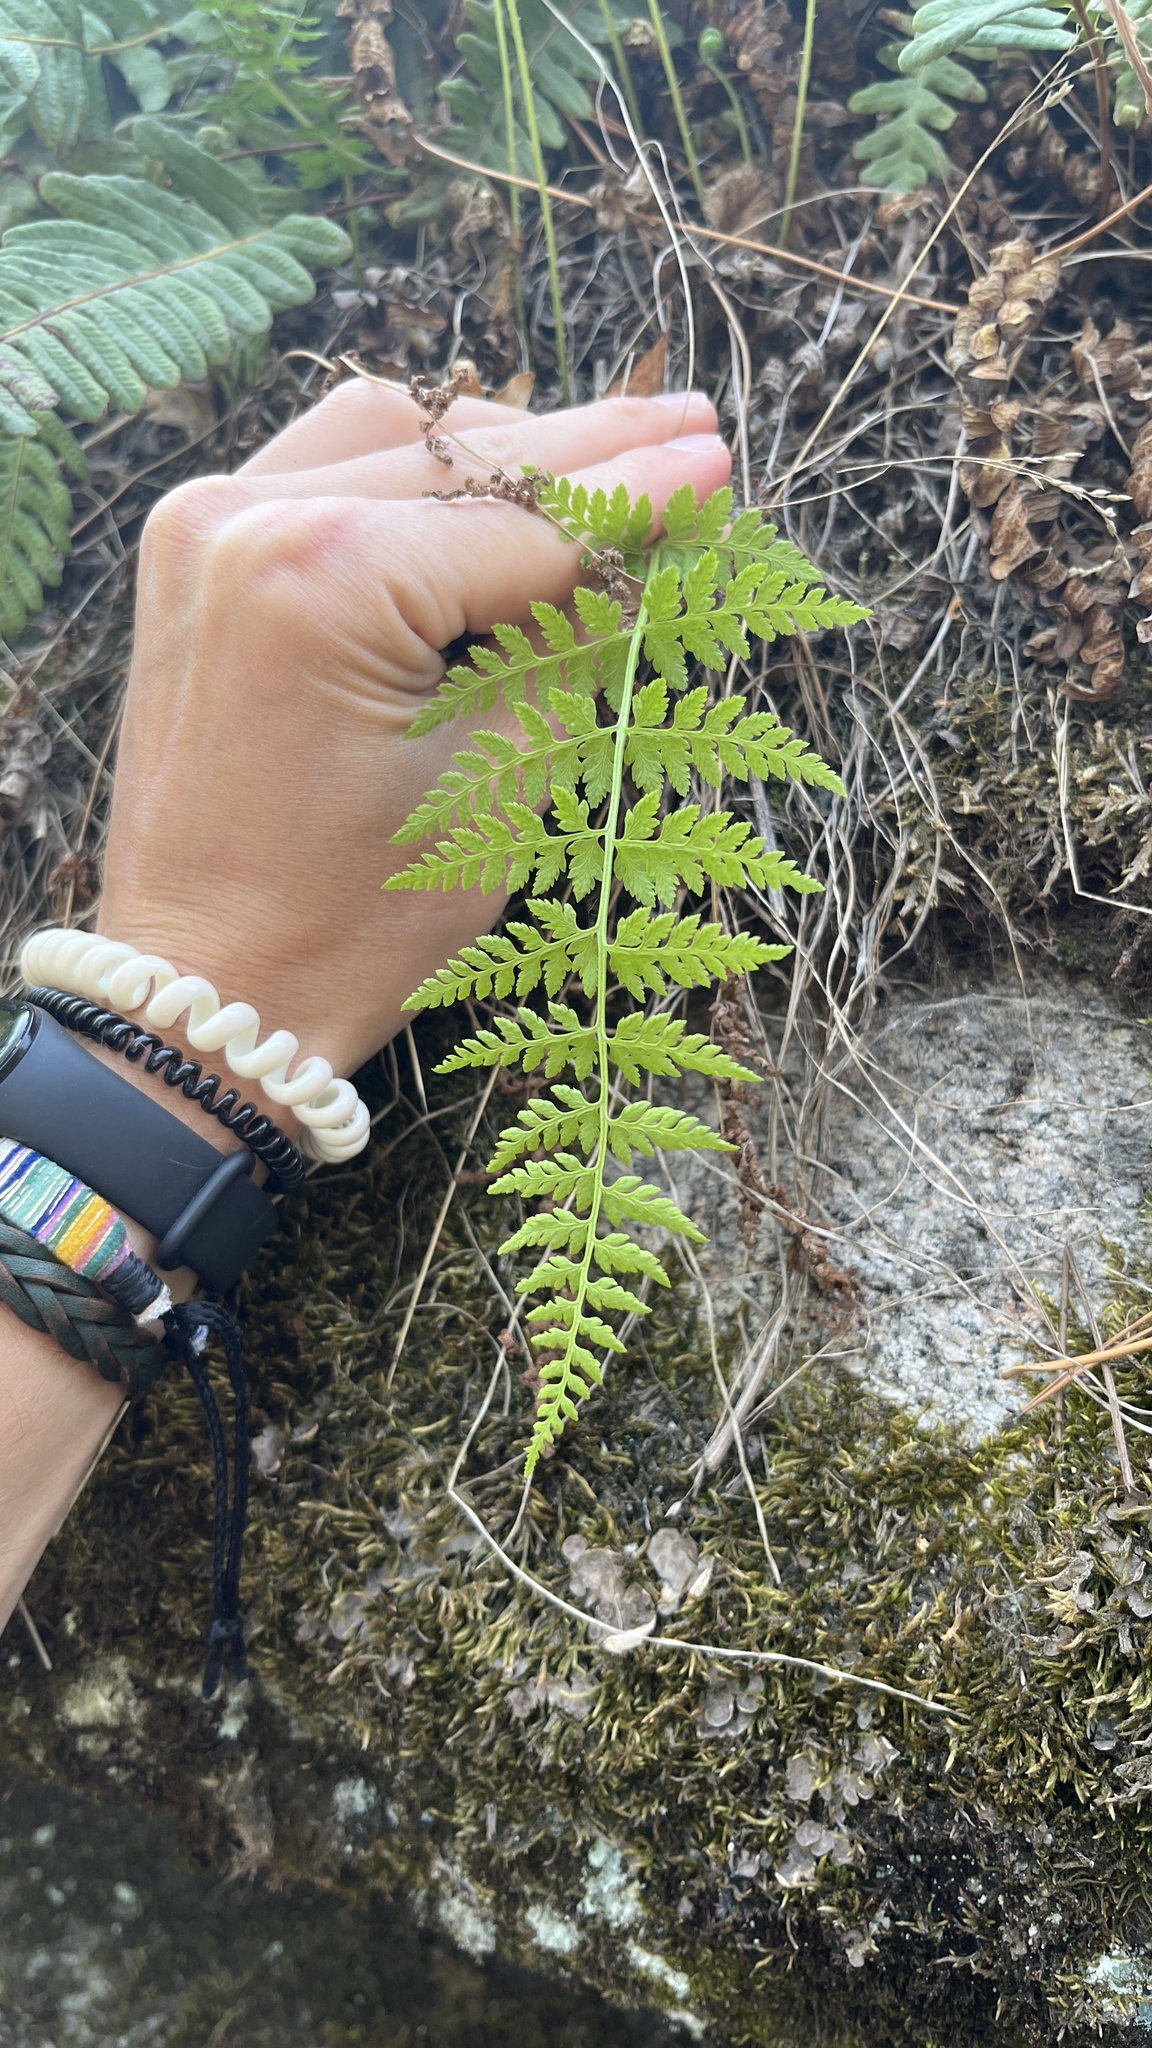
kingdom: Plantae
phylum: Tracheophyta
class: Polypodiopsida
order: Polypodiales
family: Cystopteridaceae
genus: Cystopteris
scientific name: Cystopteris fragilis
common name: Brittle bladder fern
